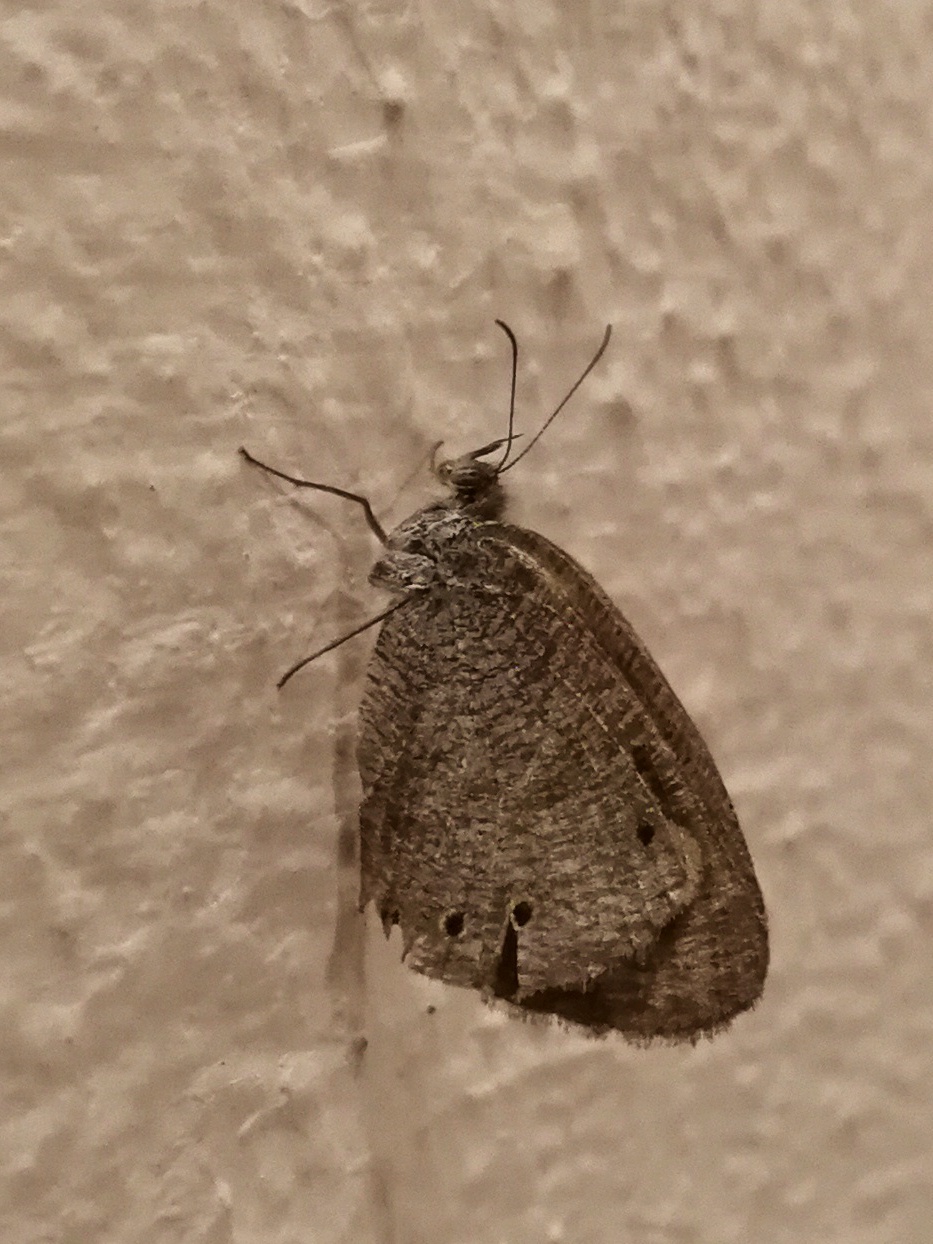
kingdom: Animalia
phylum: Arthropoda
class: Insecta
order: Lepidoptera
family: Nymphalidae
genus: Ypthima
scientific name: Ypthima huebneri
